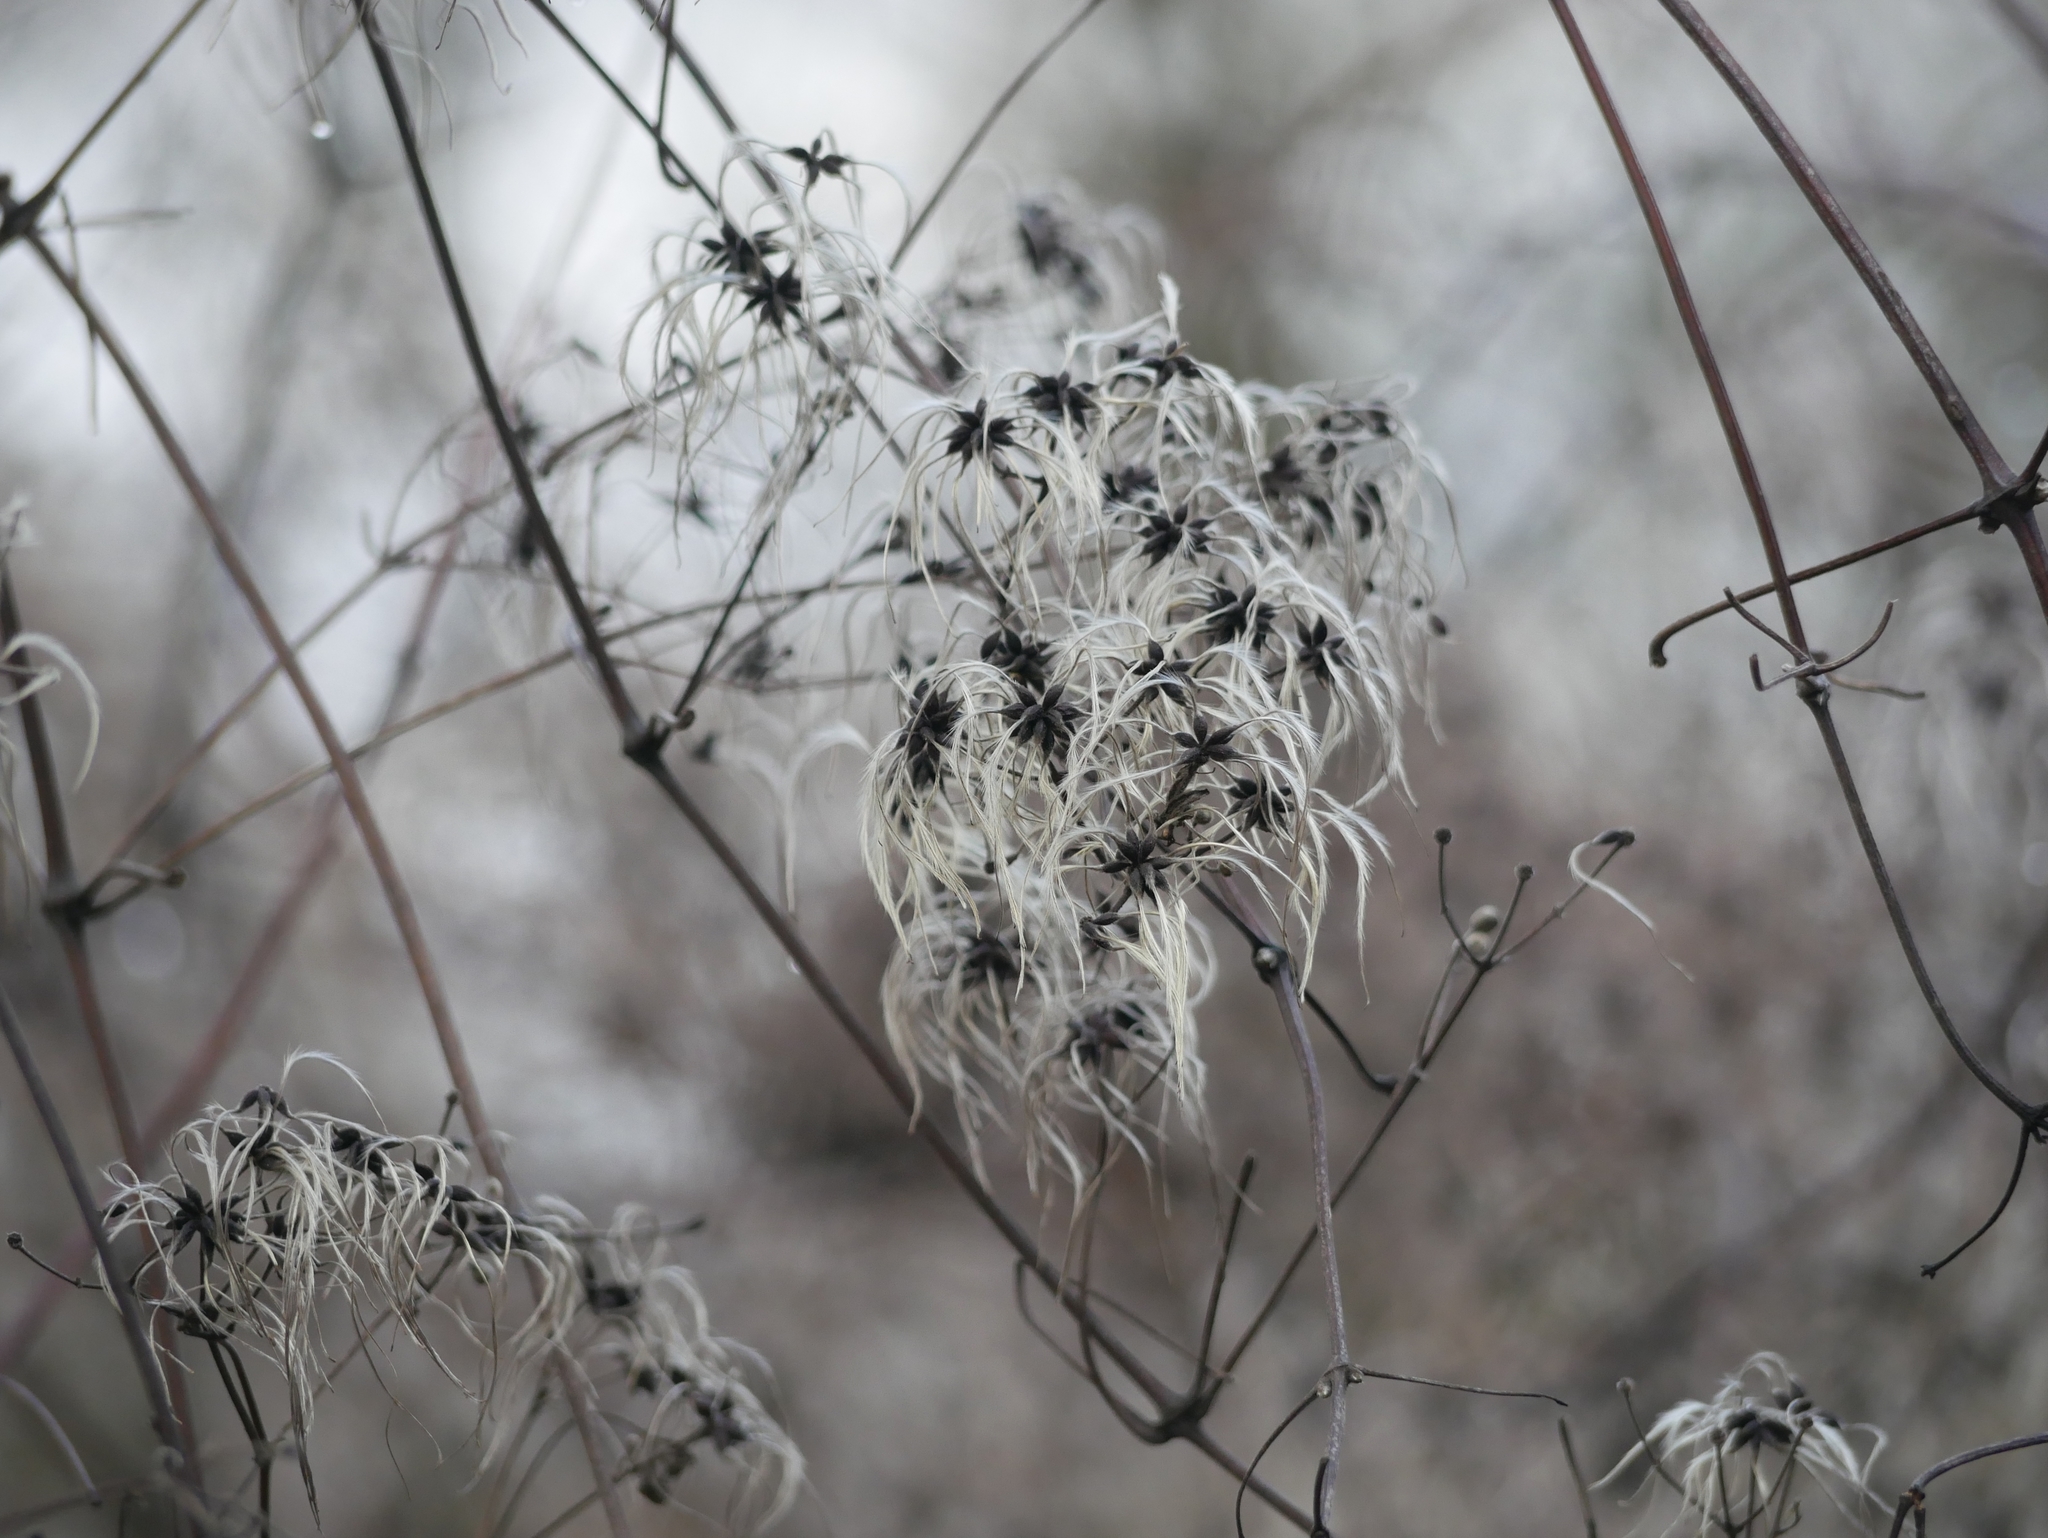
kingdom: Plantae
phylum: Tracheophyta
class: Magnoliopsida
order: Ranunculales
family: Ranunculaceae
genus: Clematis
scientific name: Clematis vitalba
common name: Evergreen clematis
